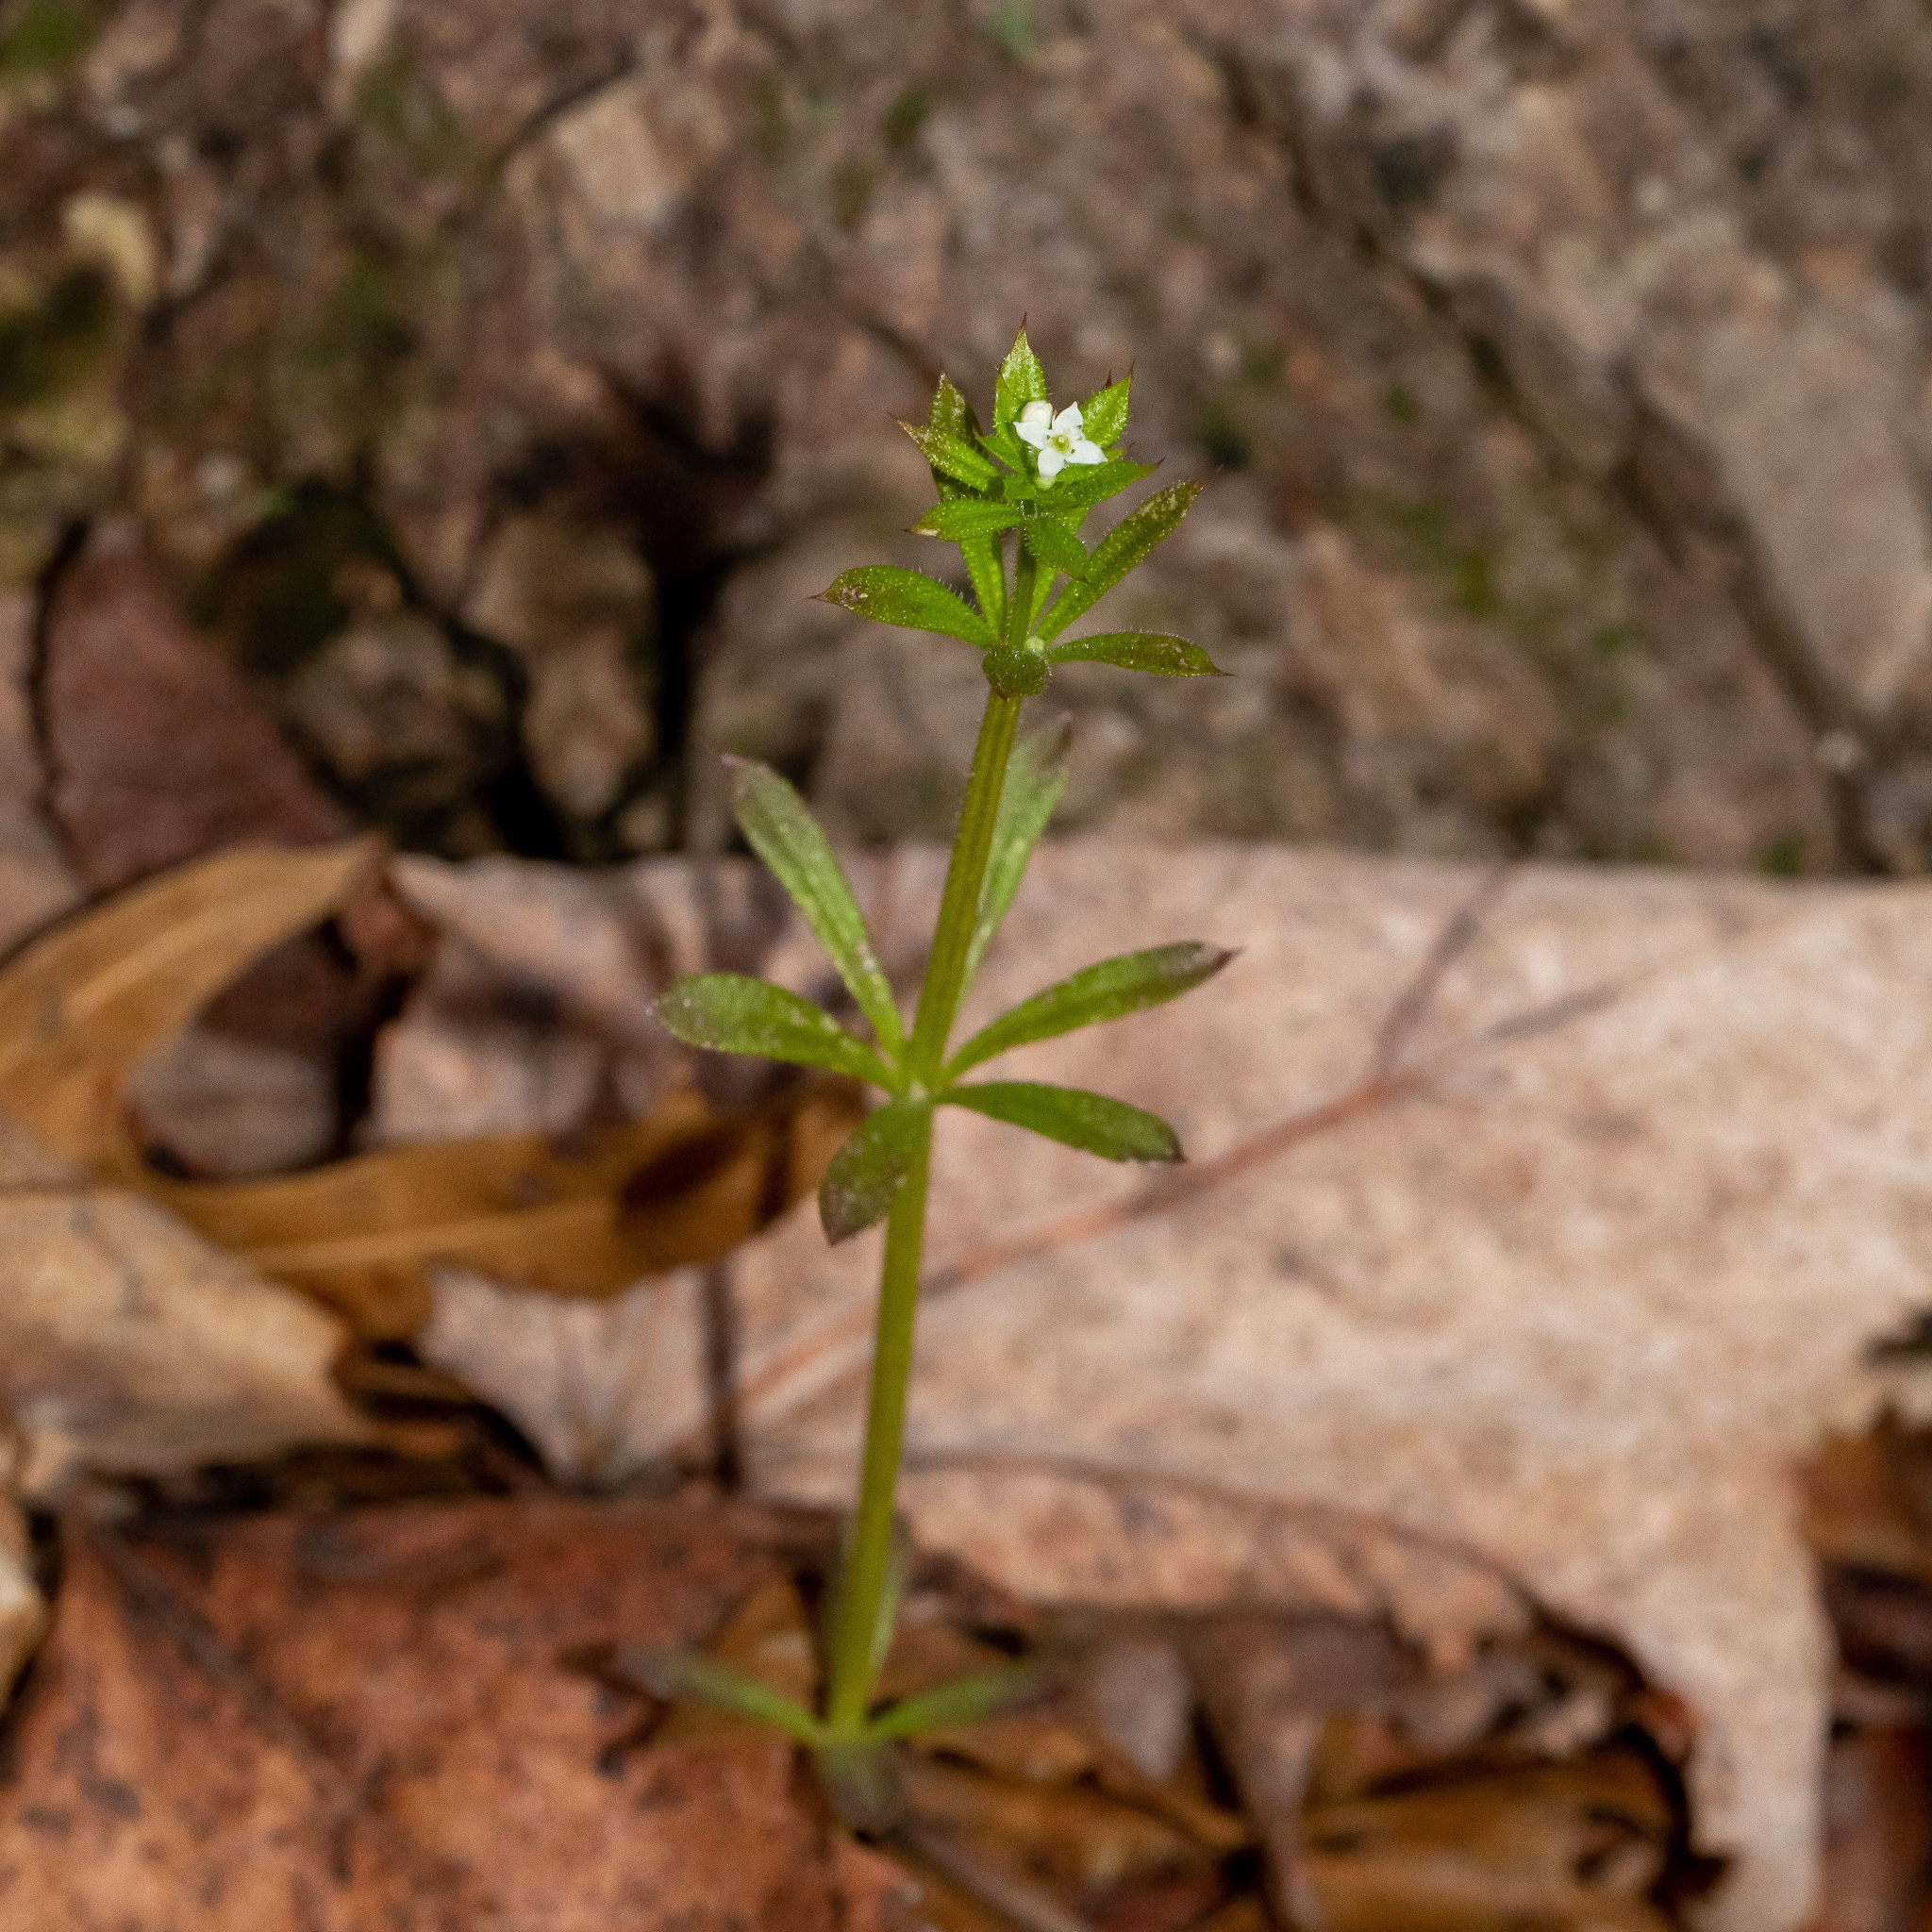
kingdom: Plantae
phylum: Tracheophyta
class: Magnoliopsida
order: Gentianales
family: Rubiaceae
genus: Galium
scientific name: Galium aparine
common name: Cleavers
